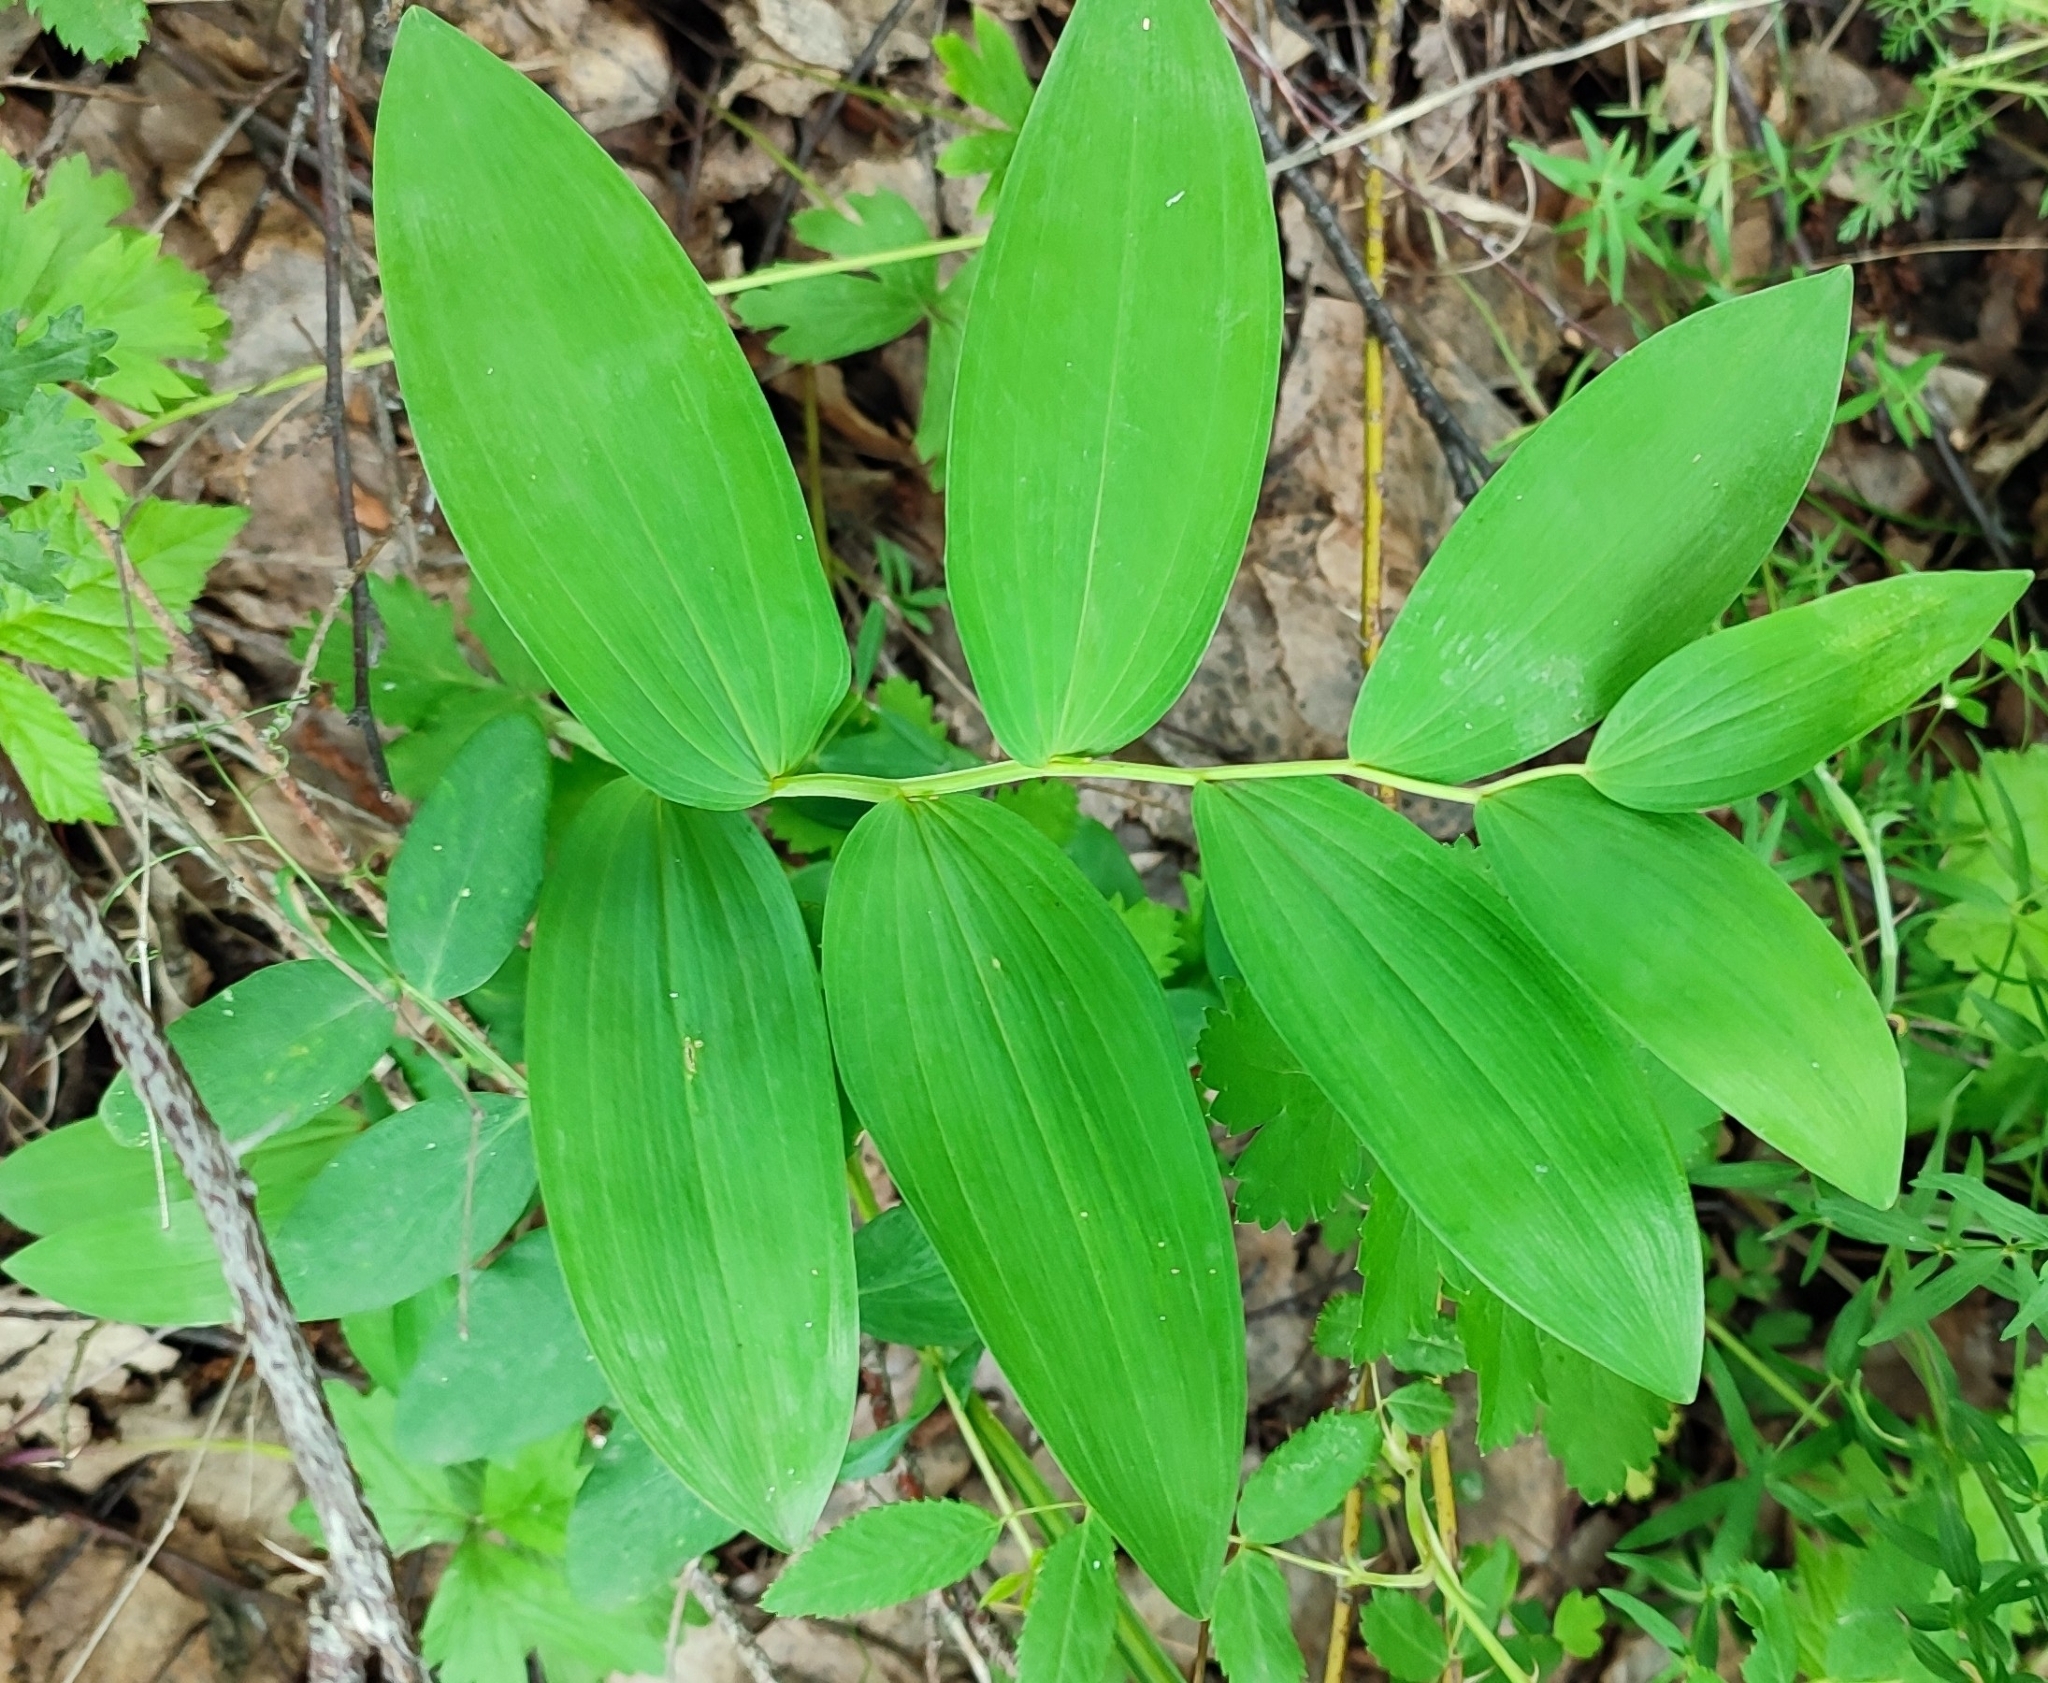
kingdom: Plantae
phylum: Tracheophyta
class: Liliopsida
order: Asparagales
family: Asparagaceae
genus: Polygonatum
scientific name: Polygonatum odoratum
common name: Angular solomon's-seal
